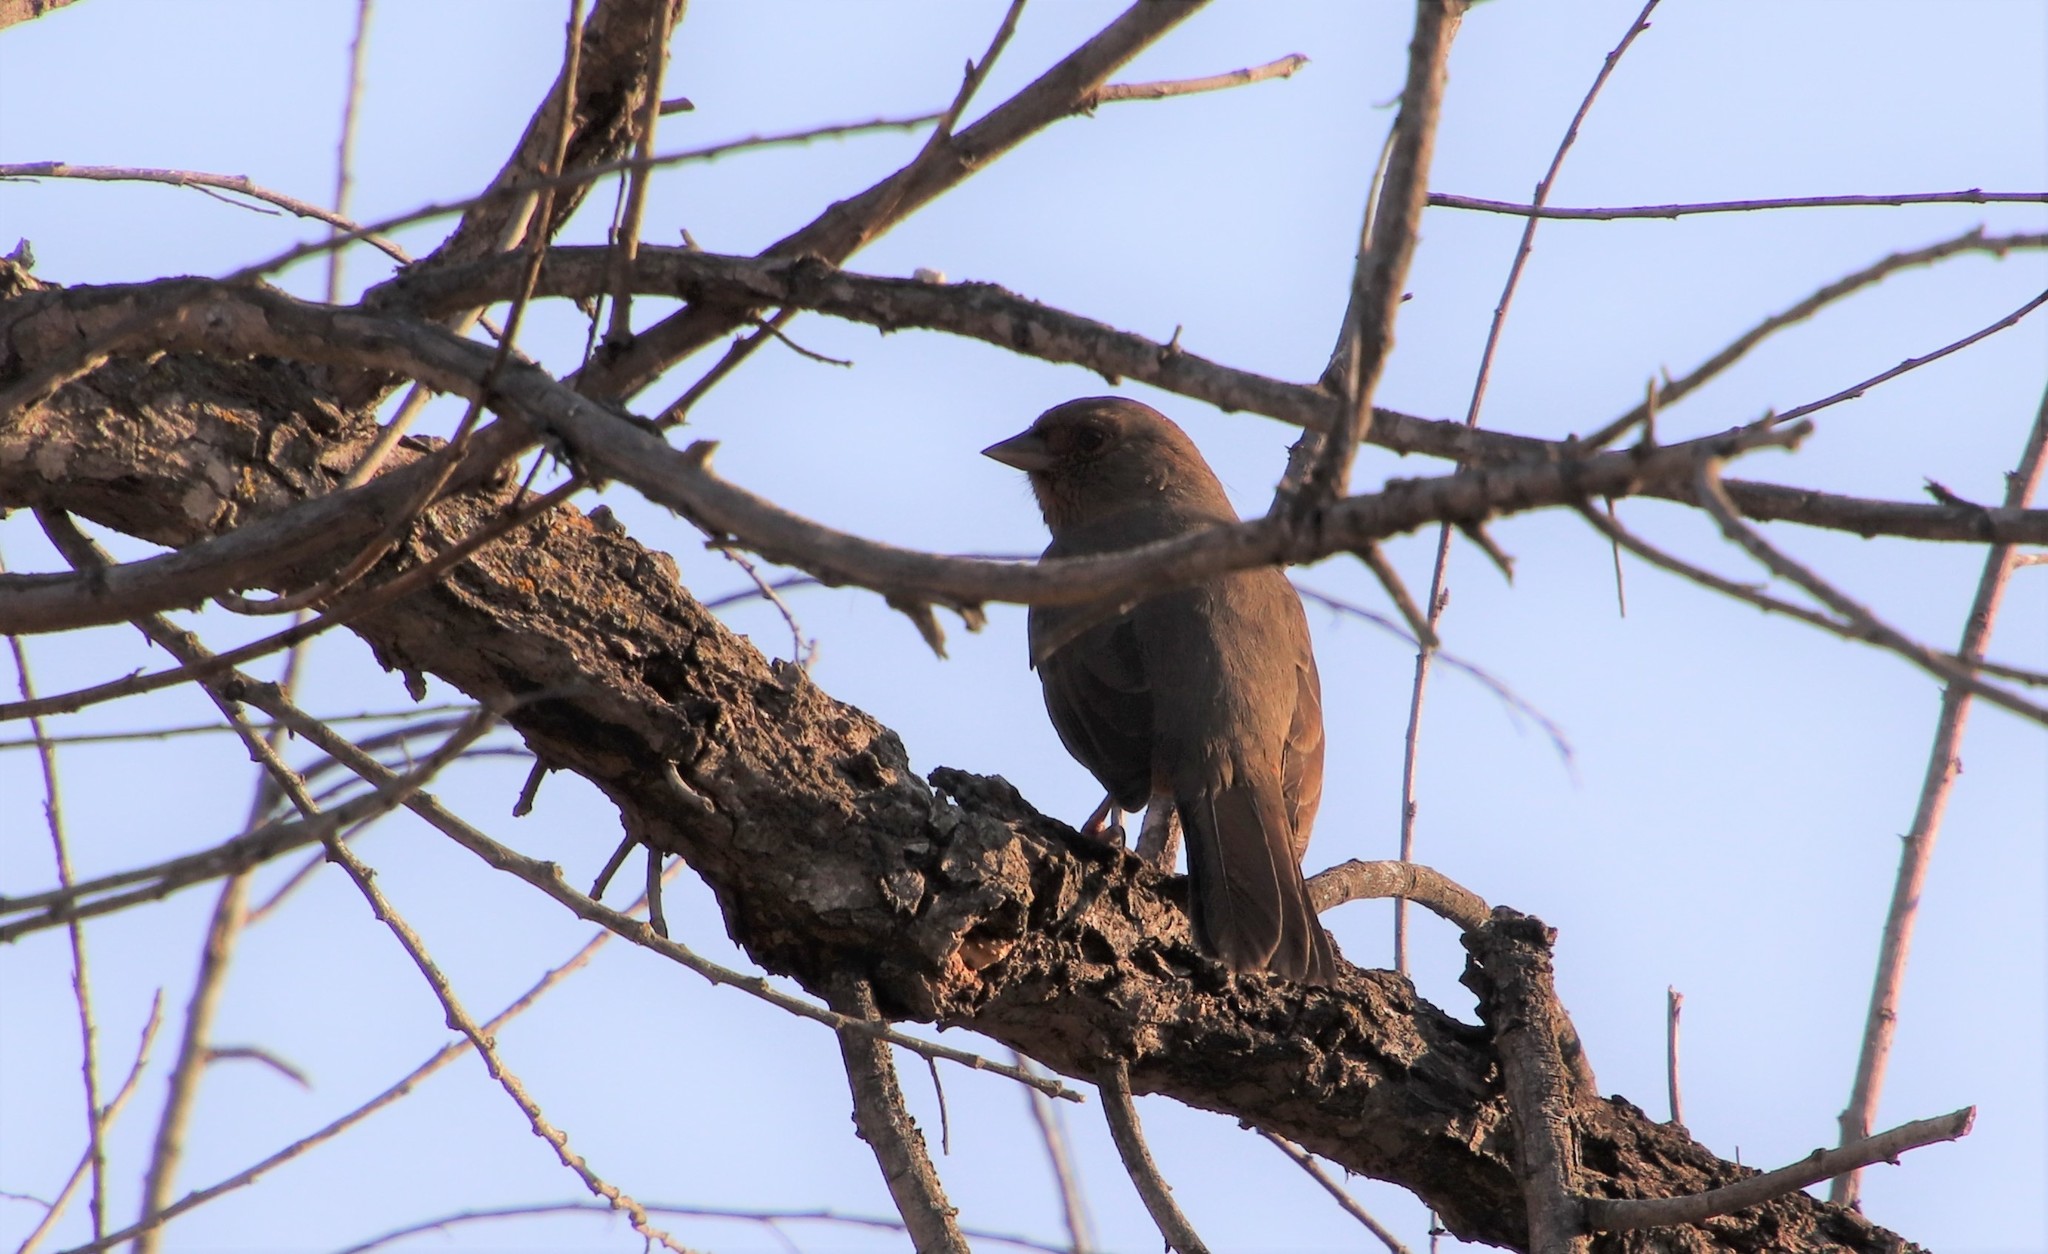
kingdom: Animalia
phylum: Chordata
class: Aves
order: Passeriformes
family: Passerellidae
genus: Melozone
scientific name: Melozone crissalis
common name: California towhee
